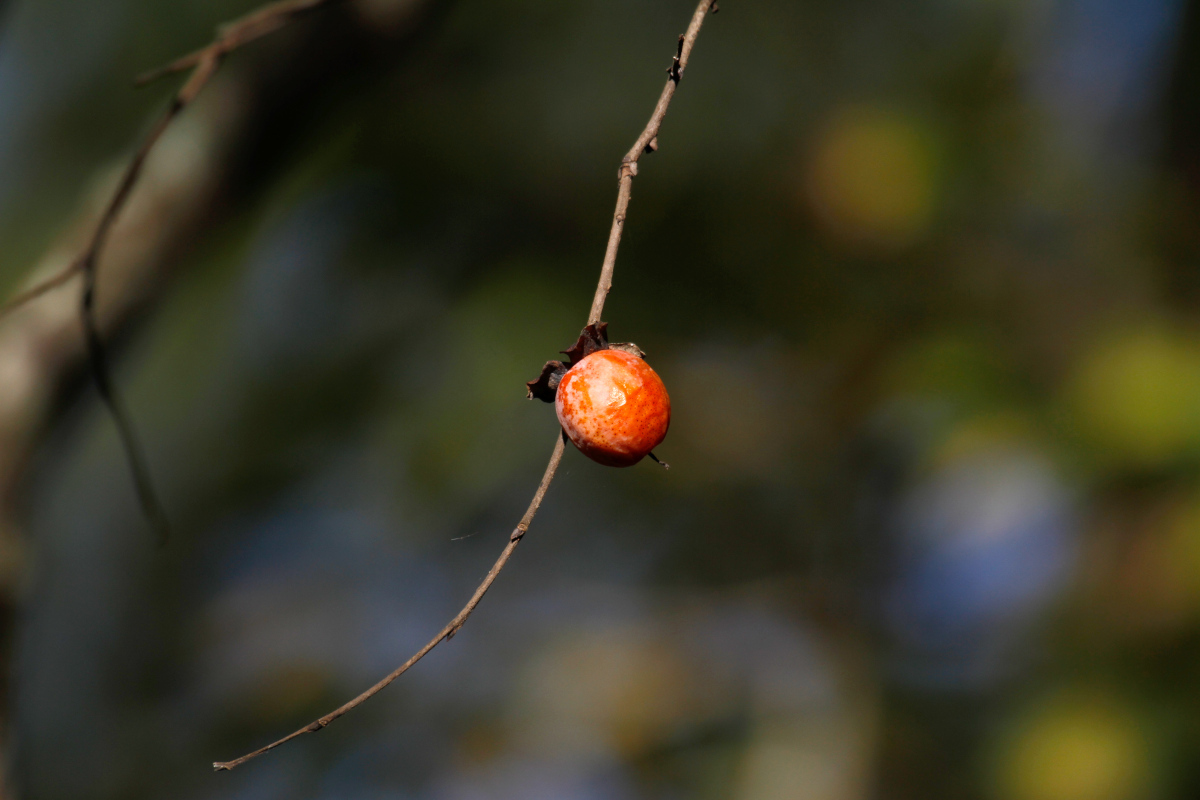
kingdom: Plantae
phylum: Tracheophyta
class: Magnoliopsida
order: Ericales
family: Ebenaceae
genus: Diospyros
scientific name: Diospyros virginiana
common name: Persimmon
